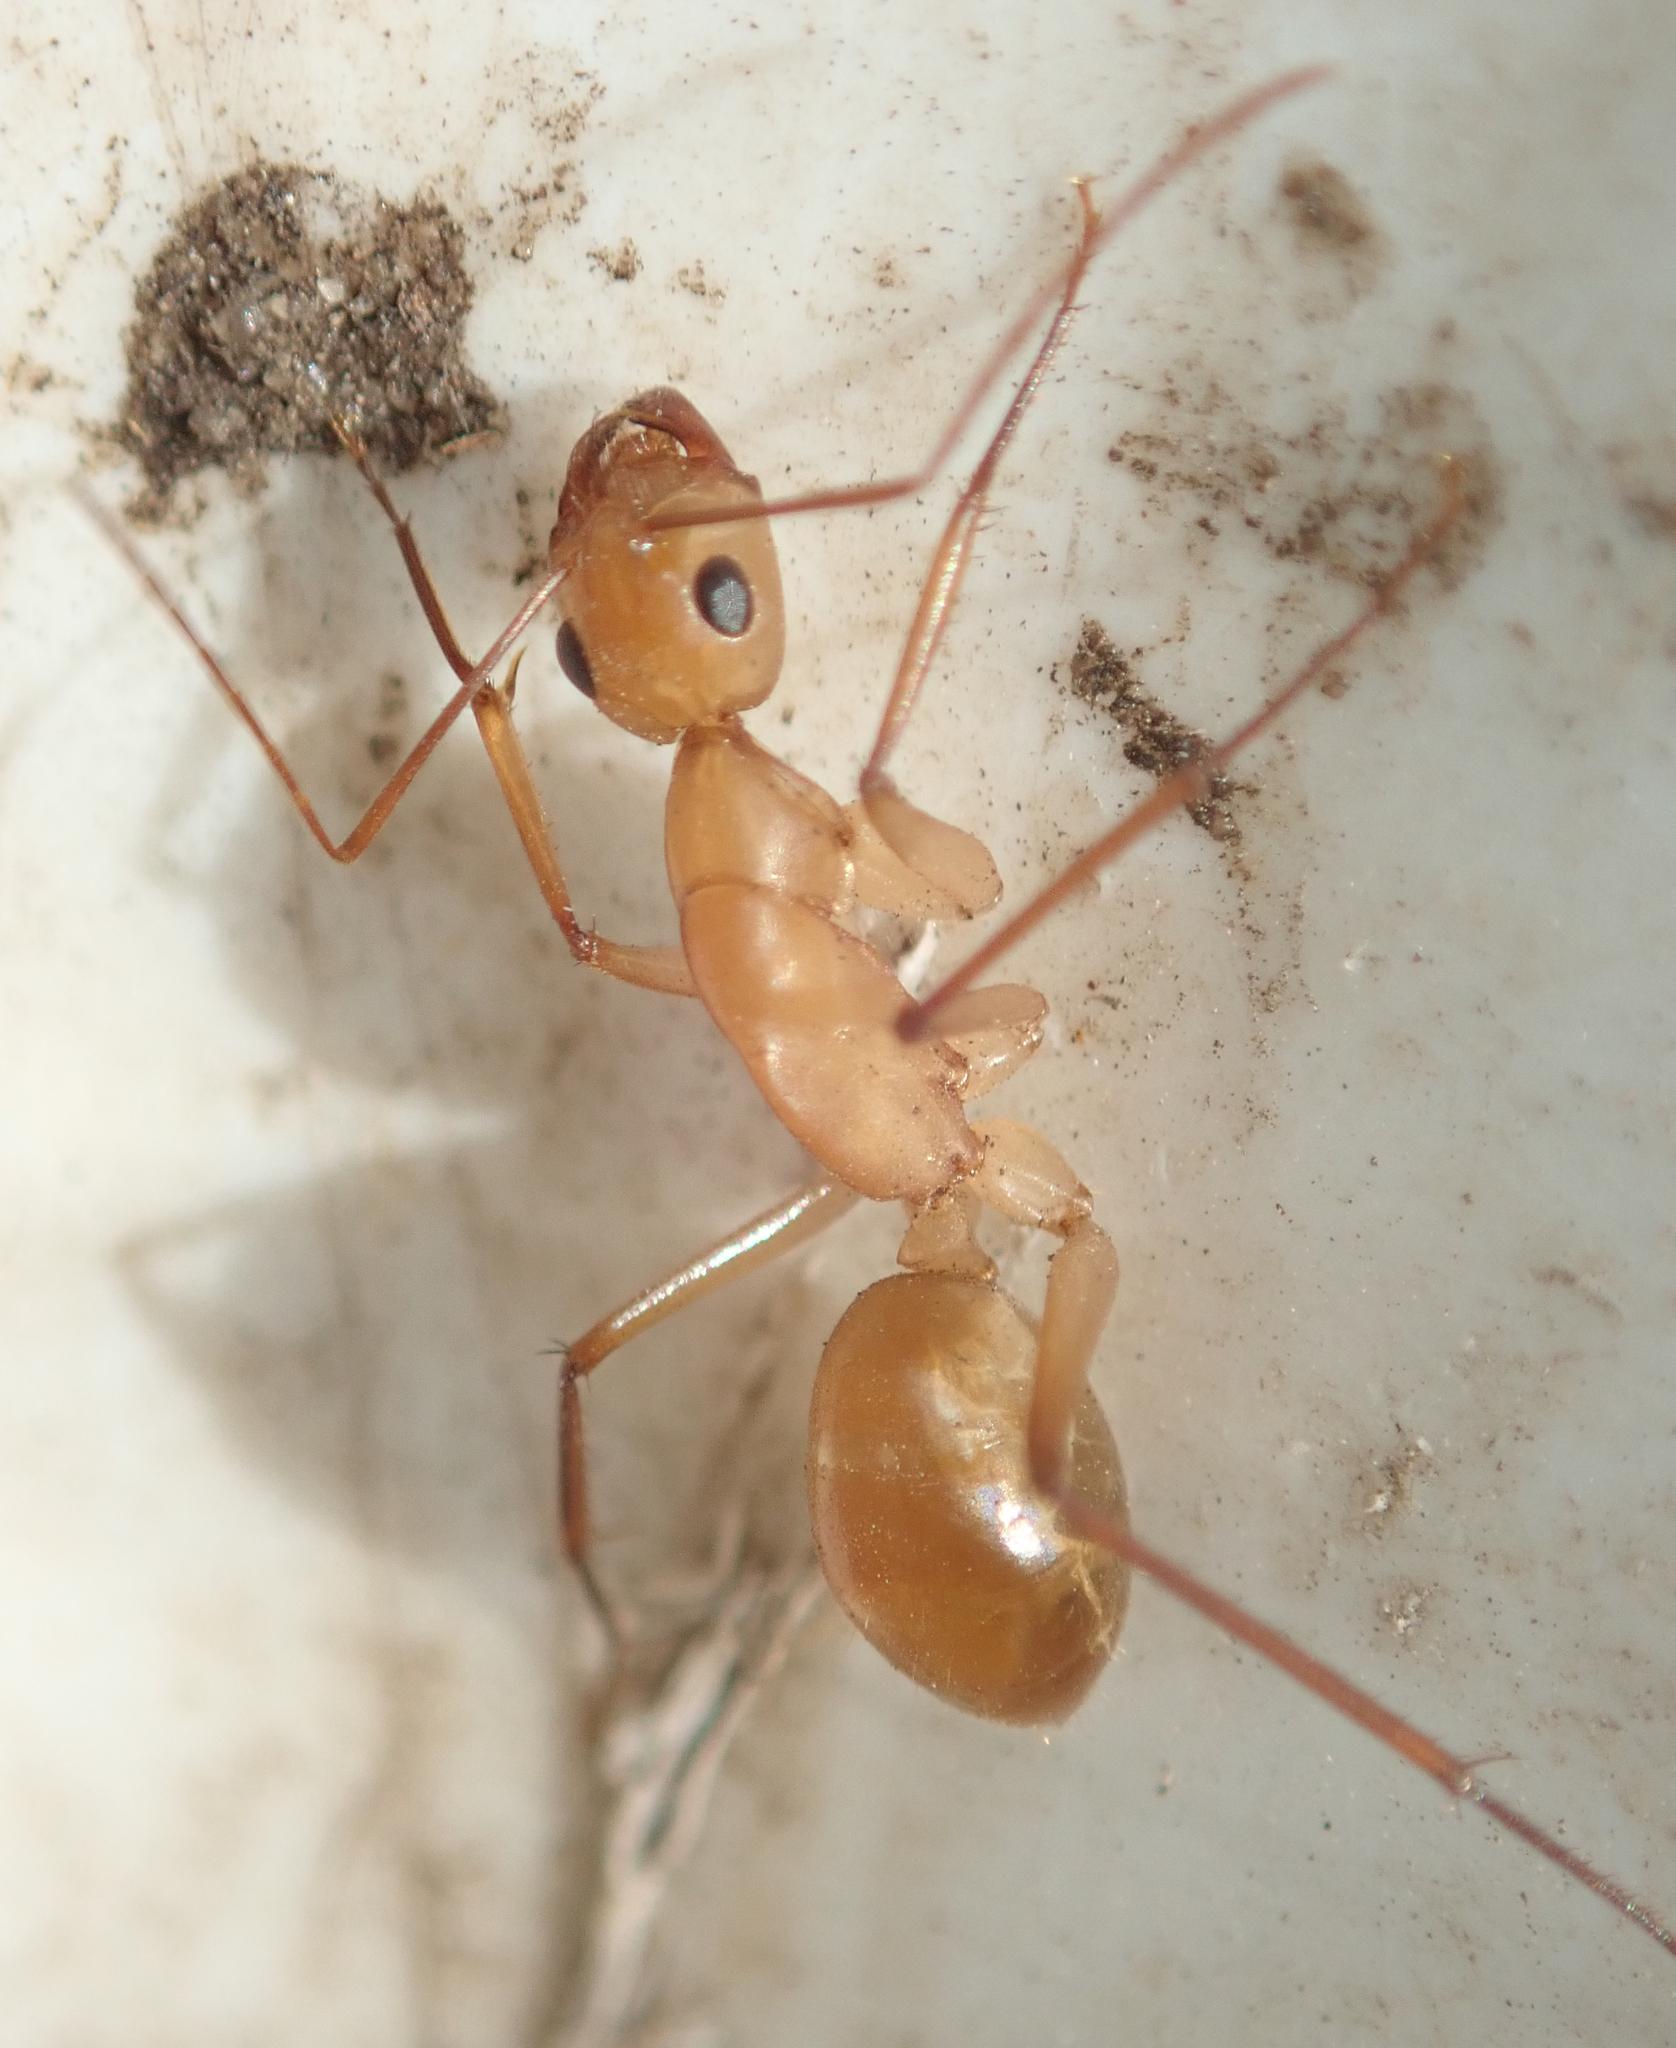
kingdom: Animalia
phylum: Arthropoda
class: Insecta
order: Hymenoptera
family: Formicidae
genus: Camponotus
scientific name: Camponotus mystaceus
